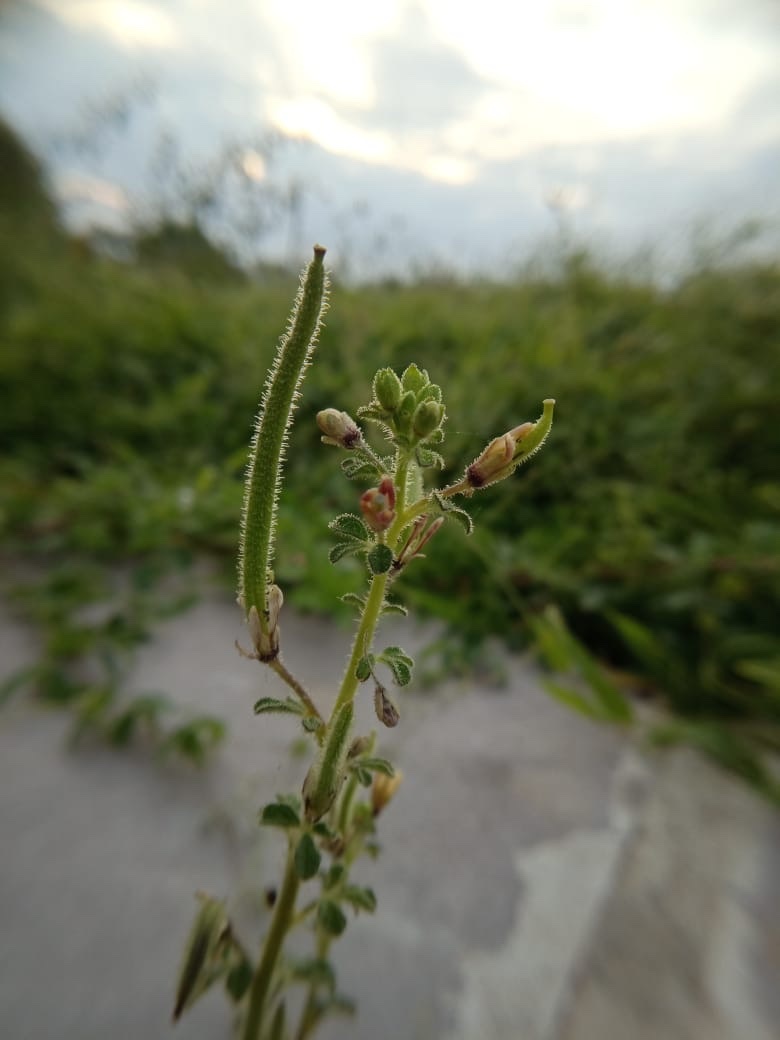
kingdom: Plantae
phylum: Tracheophyta
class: Magnoliopsida
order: Brassicales
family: Cleomaceae
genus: Arivela
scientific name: Arivela viscosa
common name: Asian spiderflower
